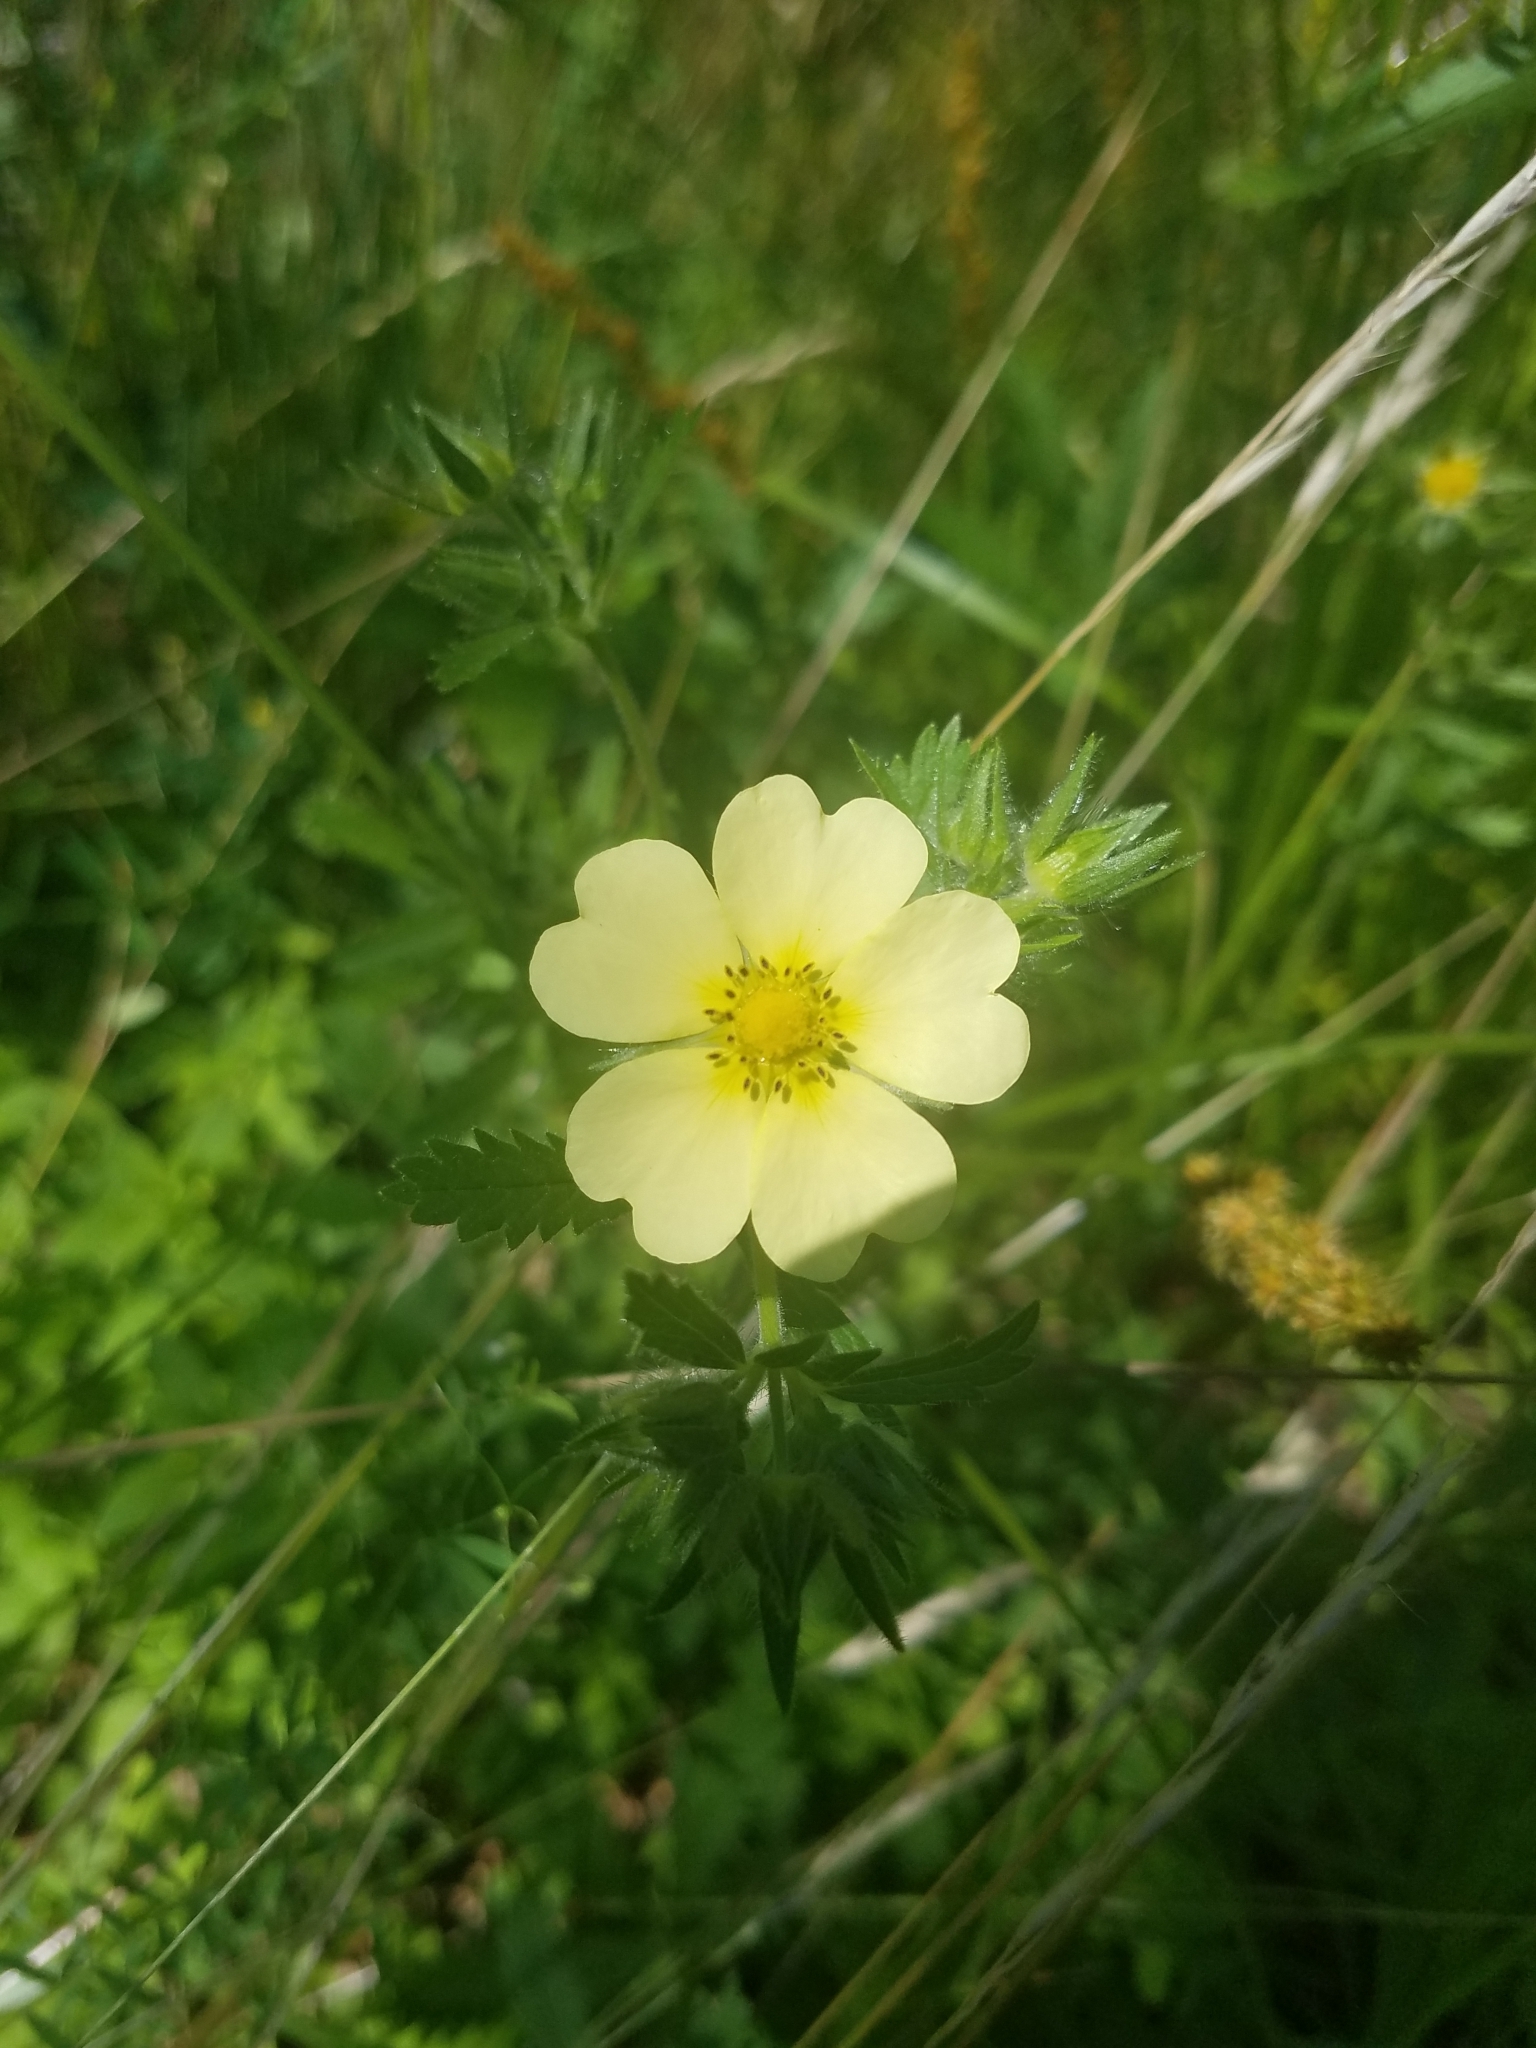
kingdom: Plantae
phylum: Tracheophyta
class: Magnoliopsida
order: Rosales
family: Rosaceae
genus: Potentilla
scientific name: Potentilla recta
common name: Sulphur cinquefoil
